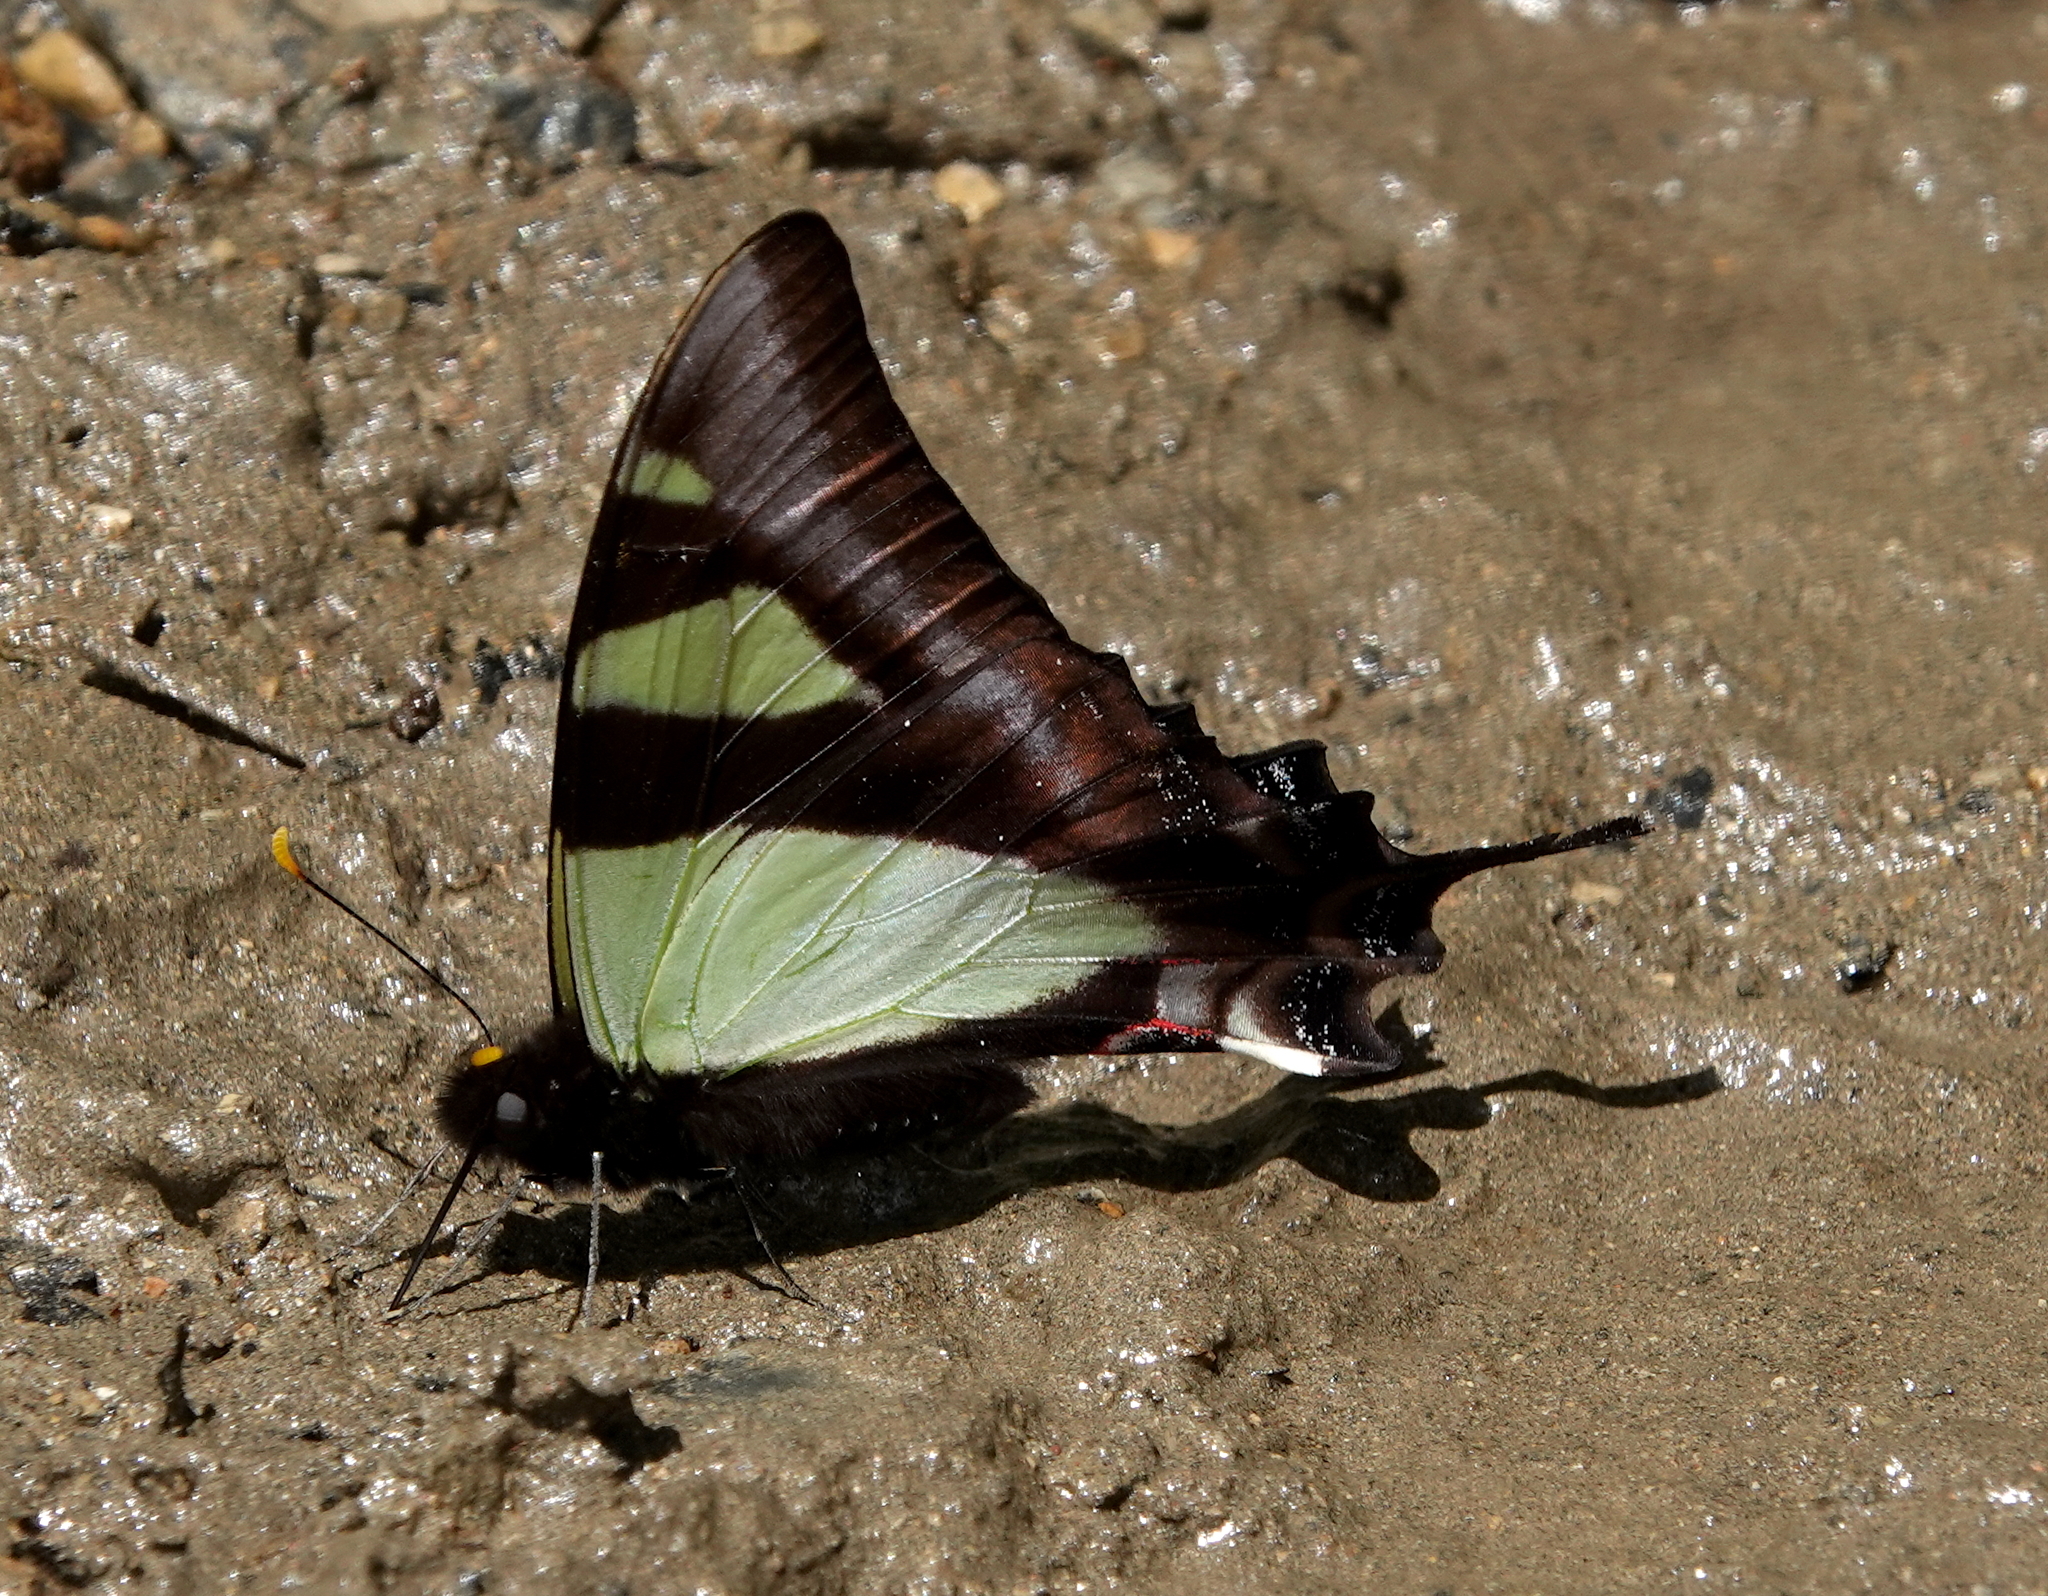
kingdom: Animalia
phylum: Arthropoda
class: Insecta
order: Lepidoptera
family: Papilionidae
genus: Eurytides
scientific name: Eurytides
